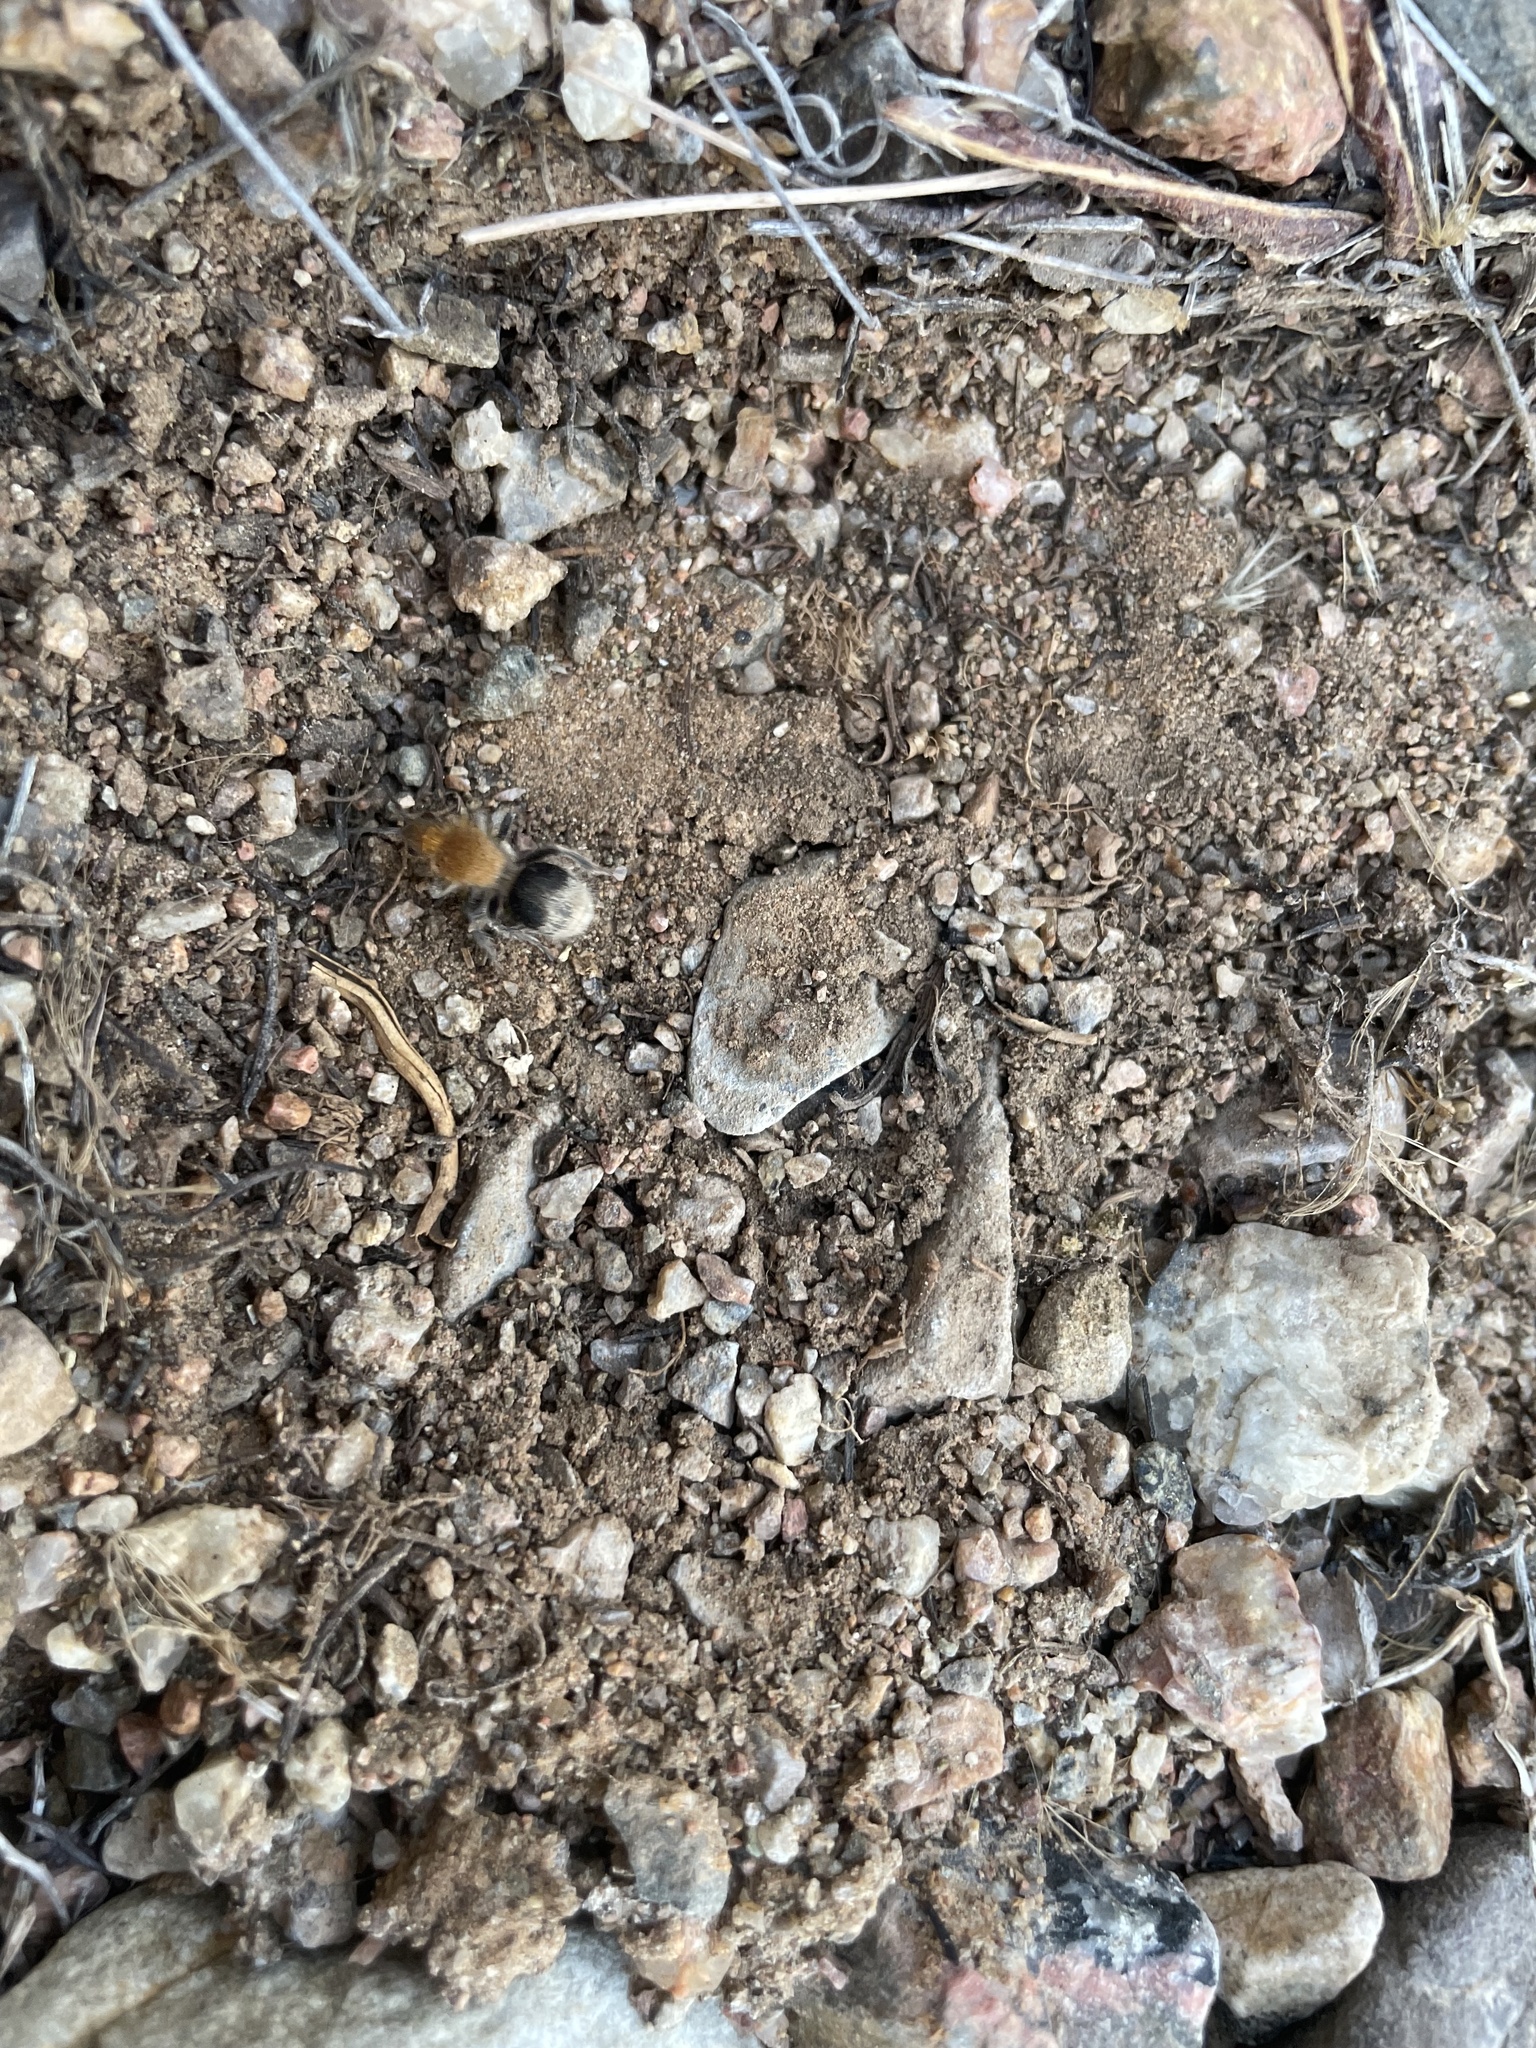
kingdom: Animalia
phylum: Arthropoda
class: Insecta
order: Hymenoptera
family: Mutillidae
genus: Sphaeropthalma
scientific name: Sphaeropthalma marpesia
